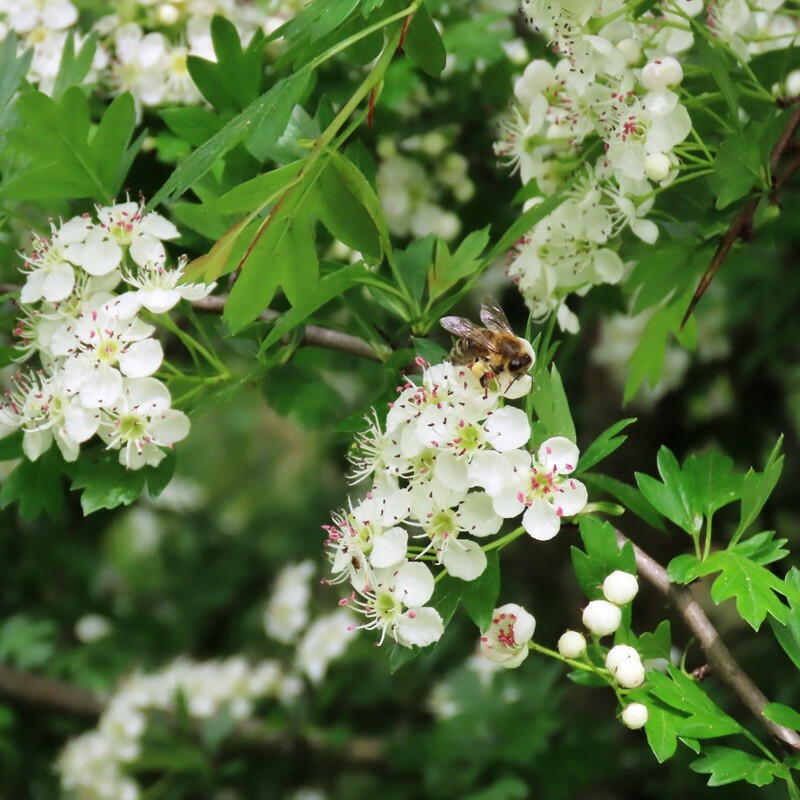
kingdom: Animalia
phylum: Arthropoda
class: Insecta
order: Hymenoptera
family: Apidae
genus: Apis
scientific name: Apis mellifera
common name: Honey bee
